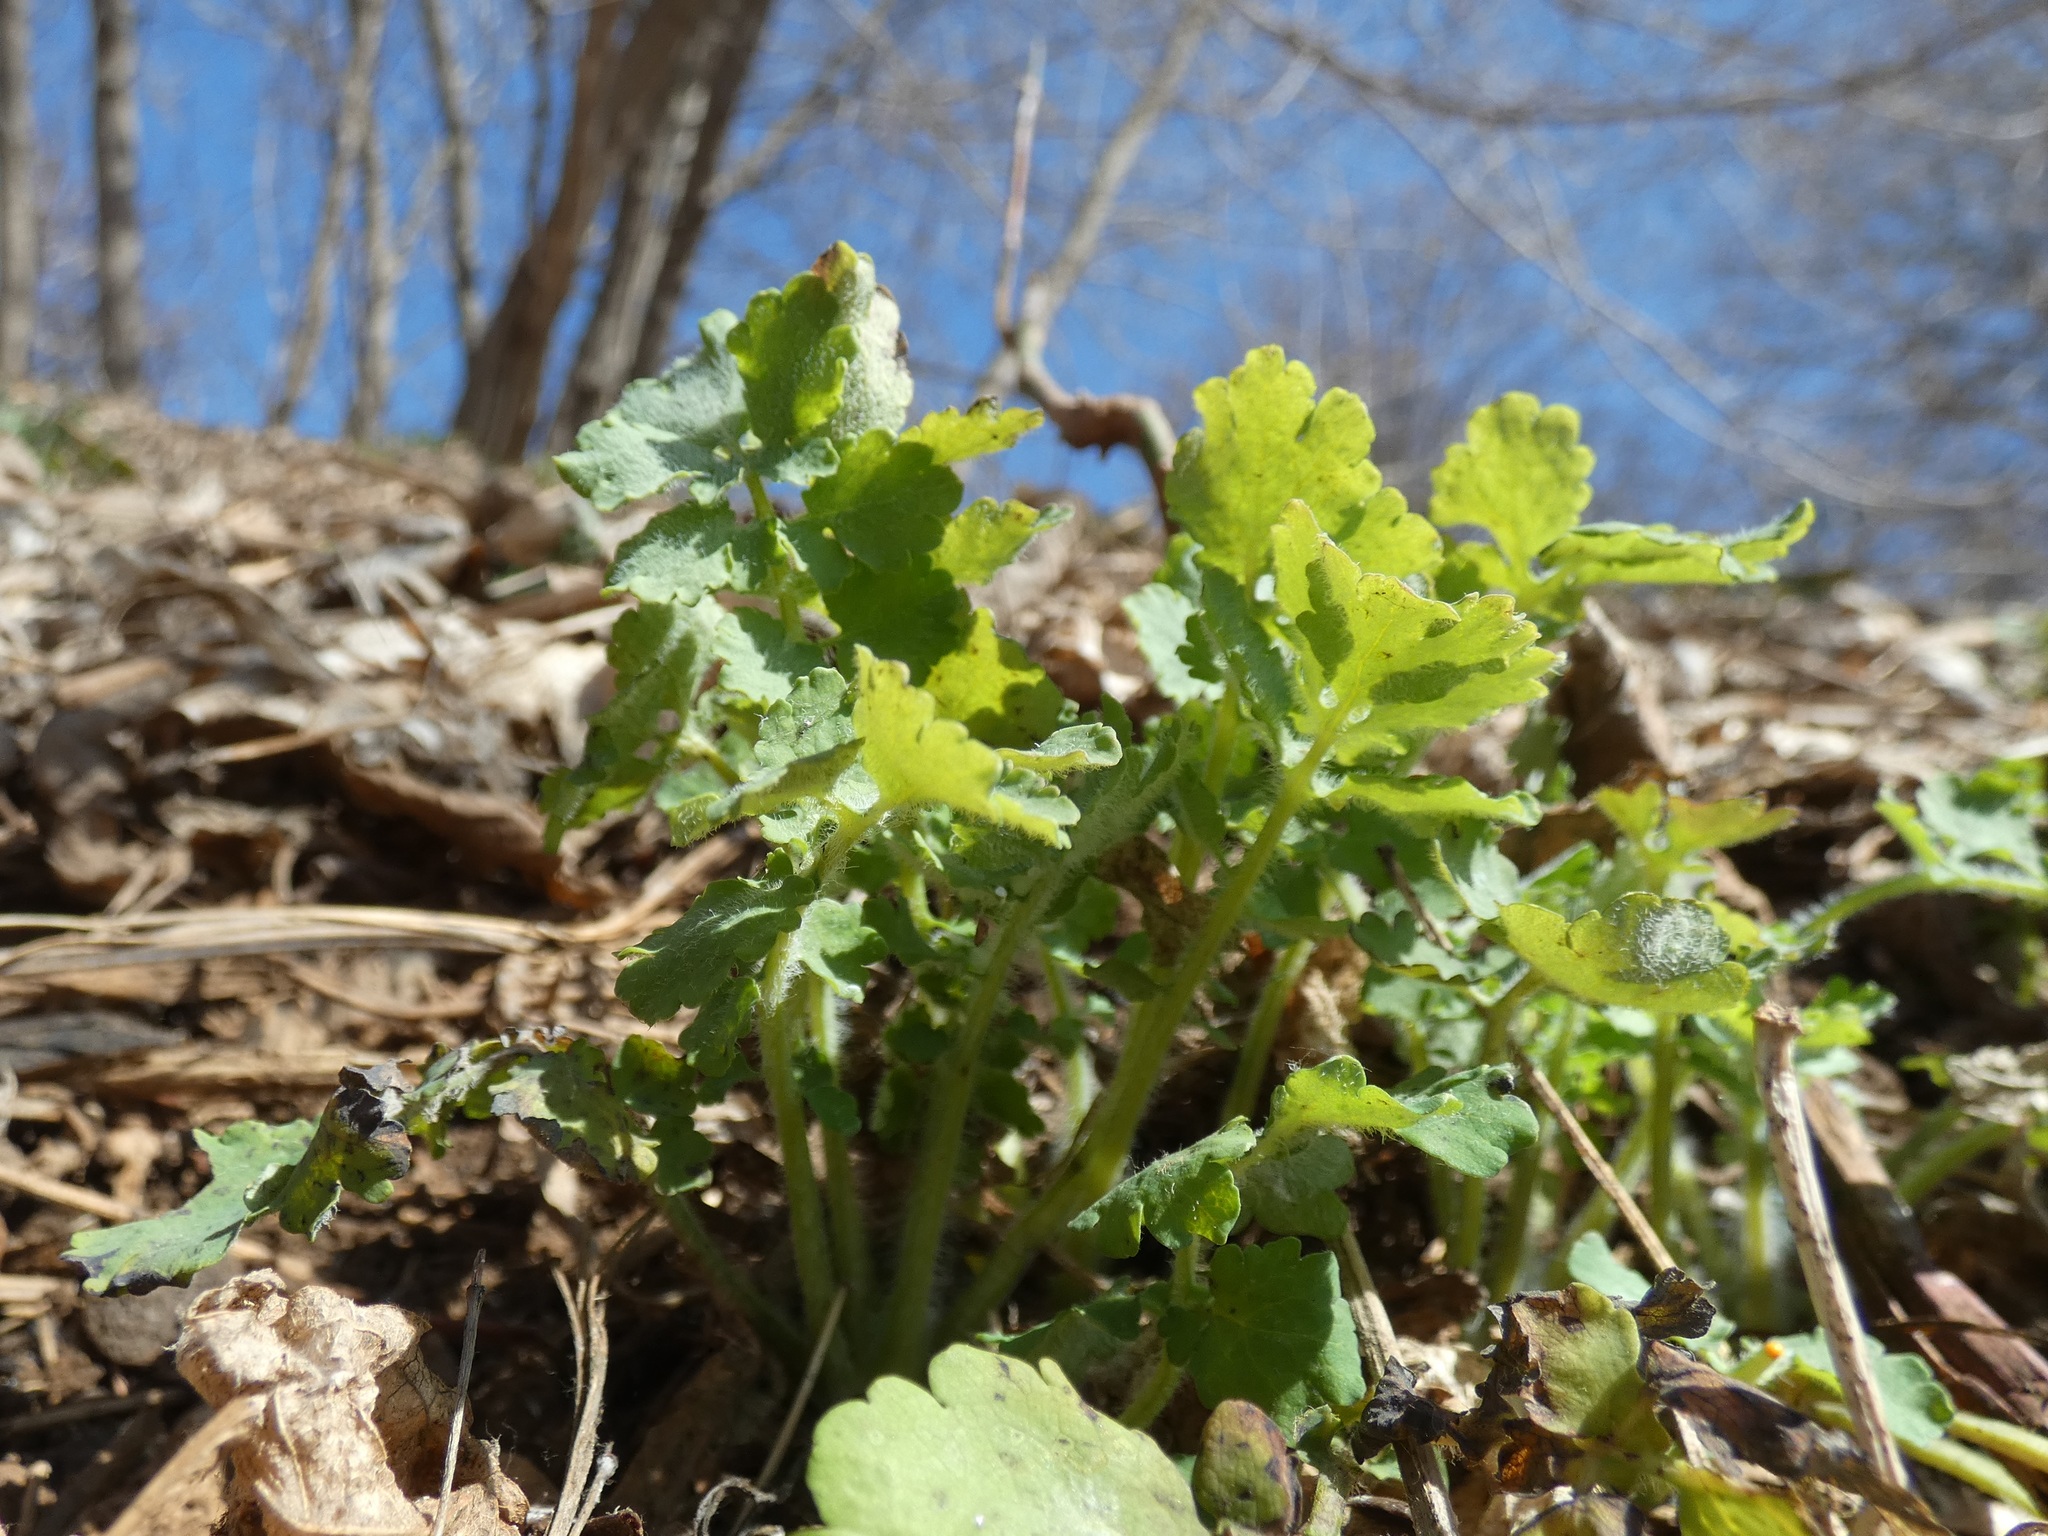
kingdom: Plantae
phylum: Tracheophyta
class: Magnoliopsida
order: Ranunculales
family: Papaveraceae
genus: Chelidonium
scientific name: Chelidonium majus
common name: Greater celandine
